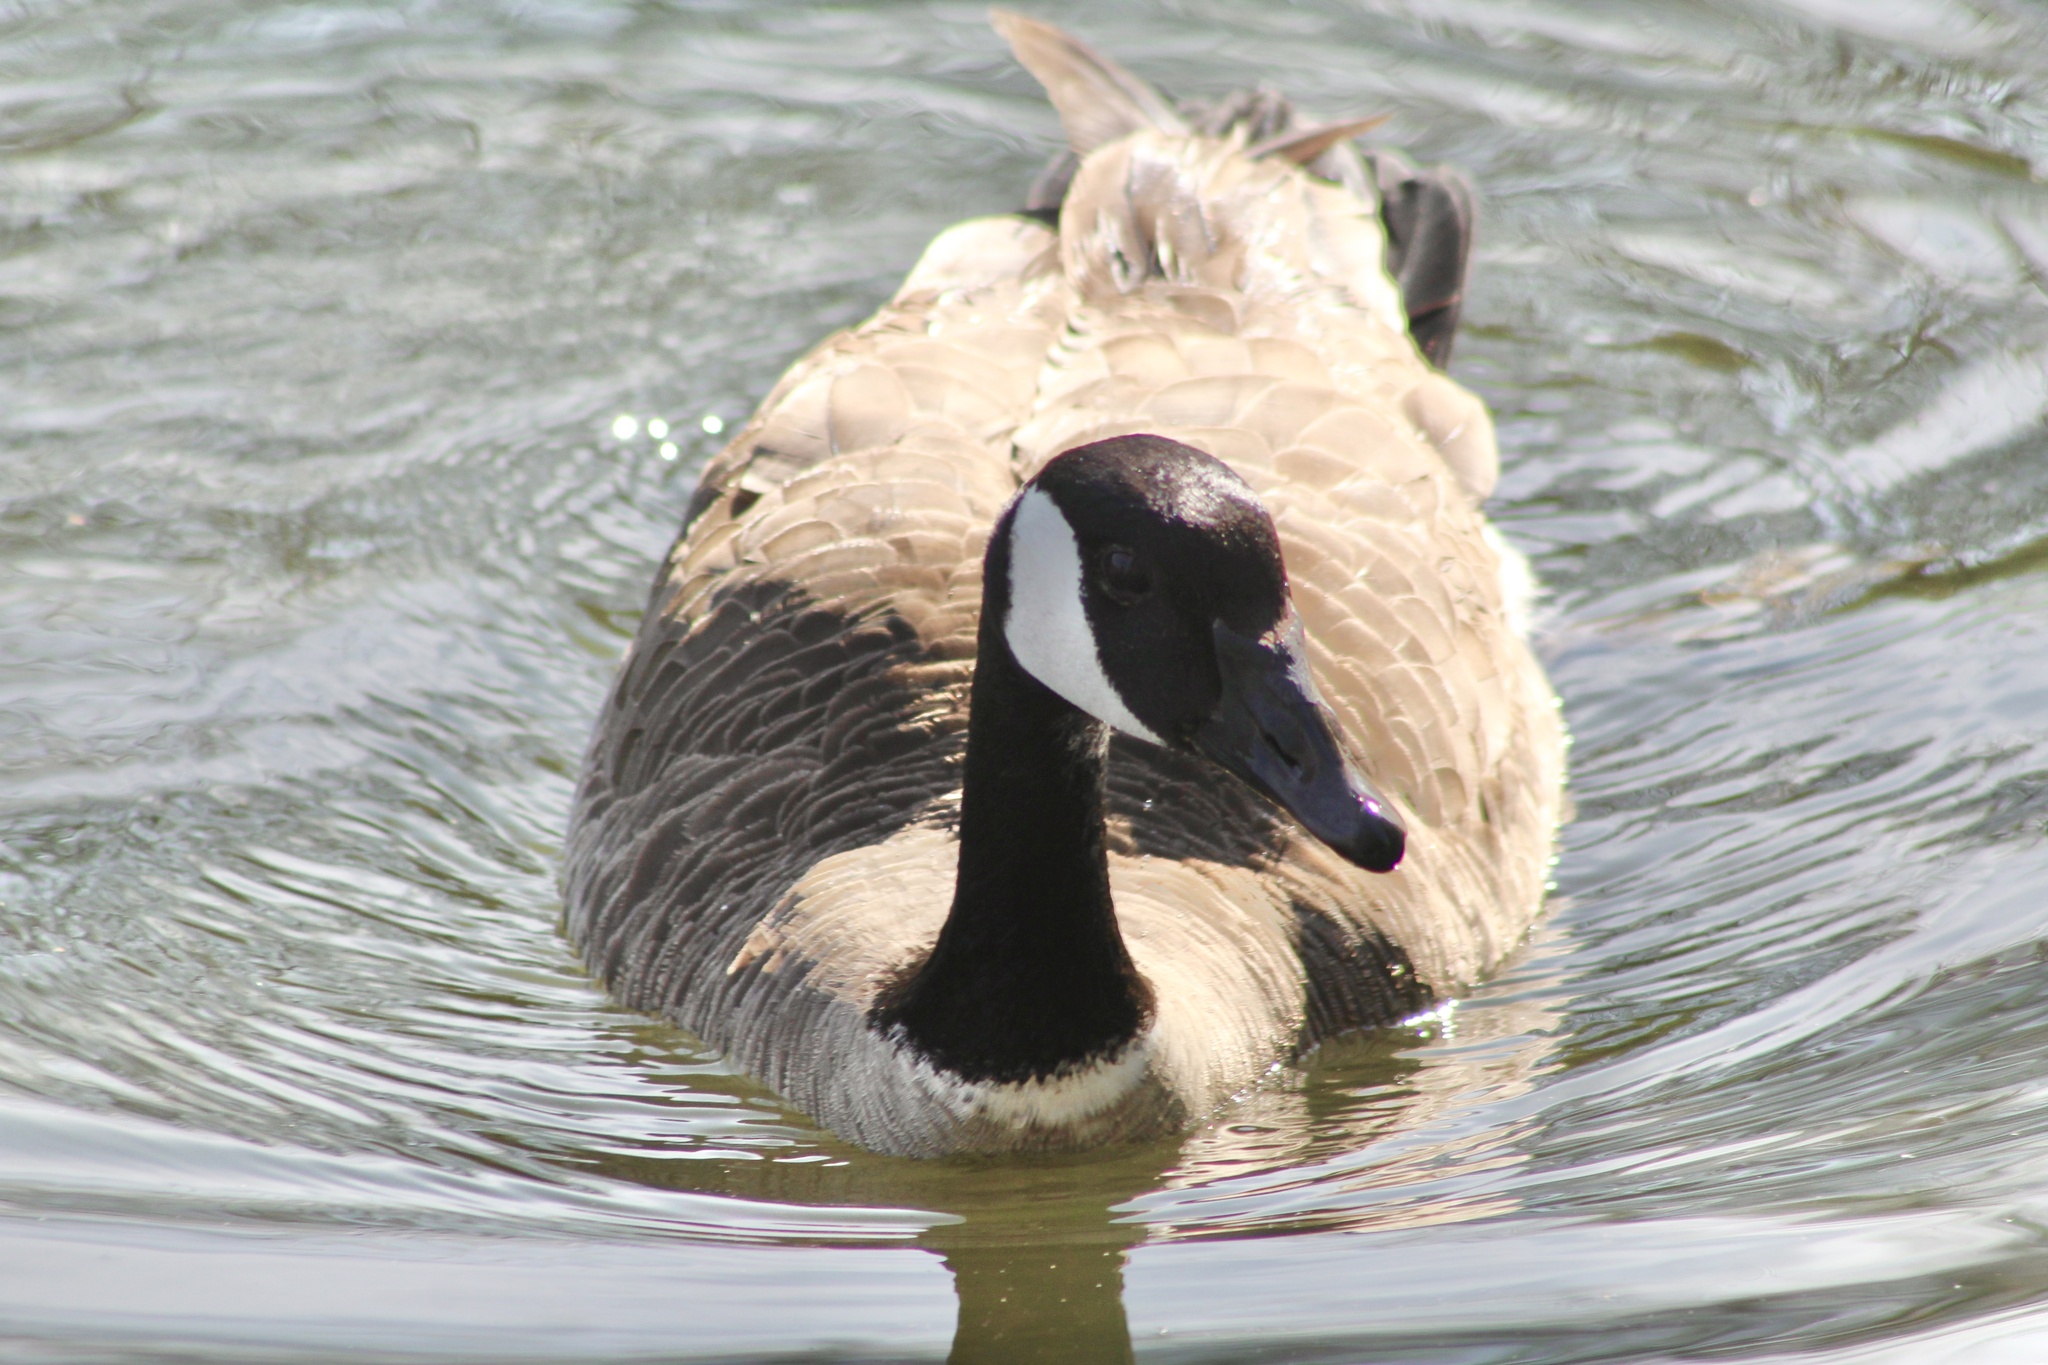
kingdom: Animalia
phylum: Chordata
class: Aves
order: Anseriformes
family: Anatidae
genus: Branta
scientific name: Branta canadensis
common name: Canada goose
